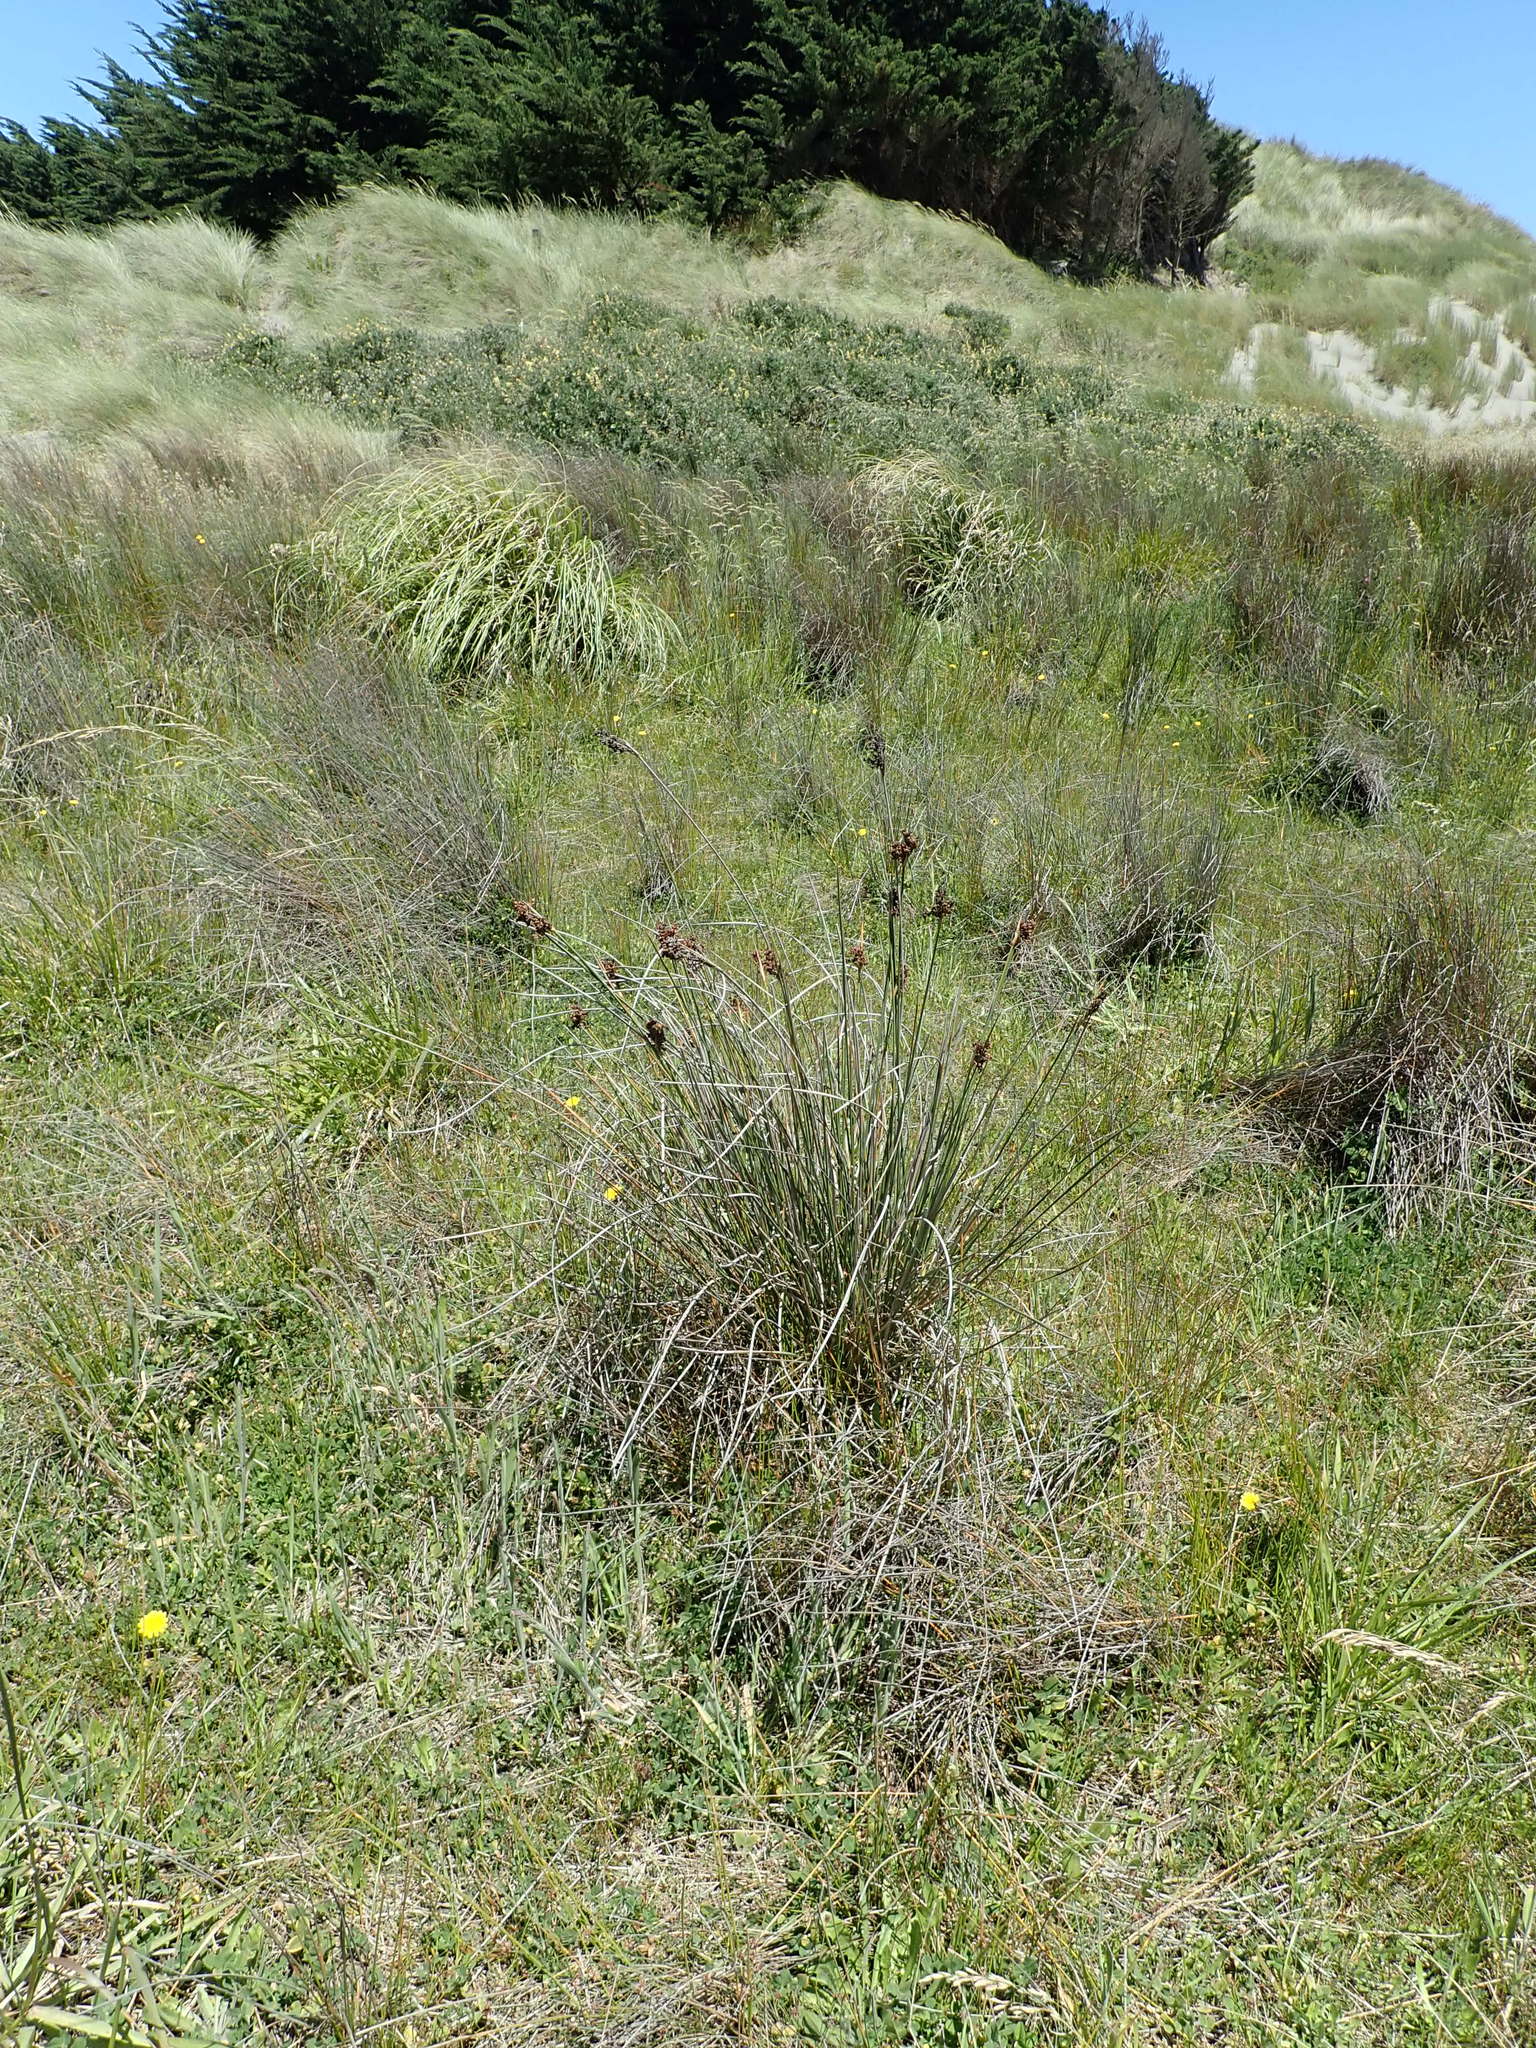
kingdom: Plantae
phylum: Tracheophyta
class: Liliopsida
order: Poales
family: Juncaceae
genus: Juncus
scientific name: Juncus acutus
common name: Sharp rush
